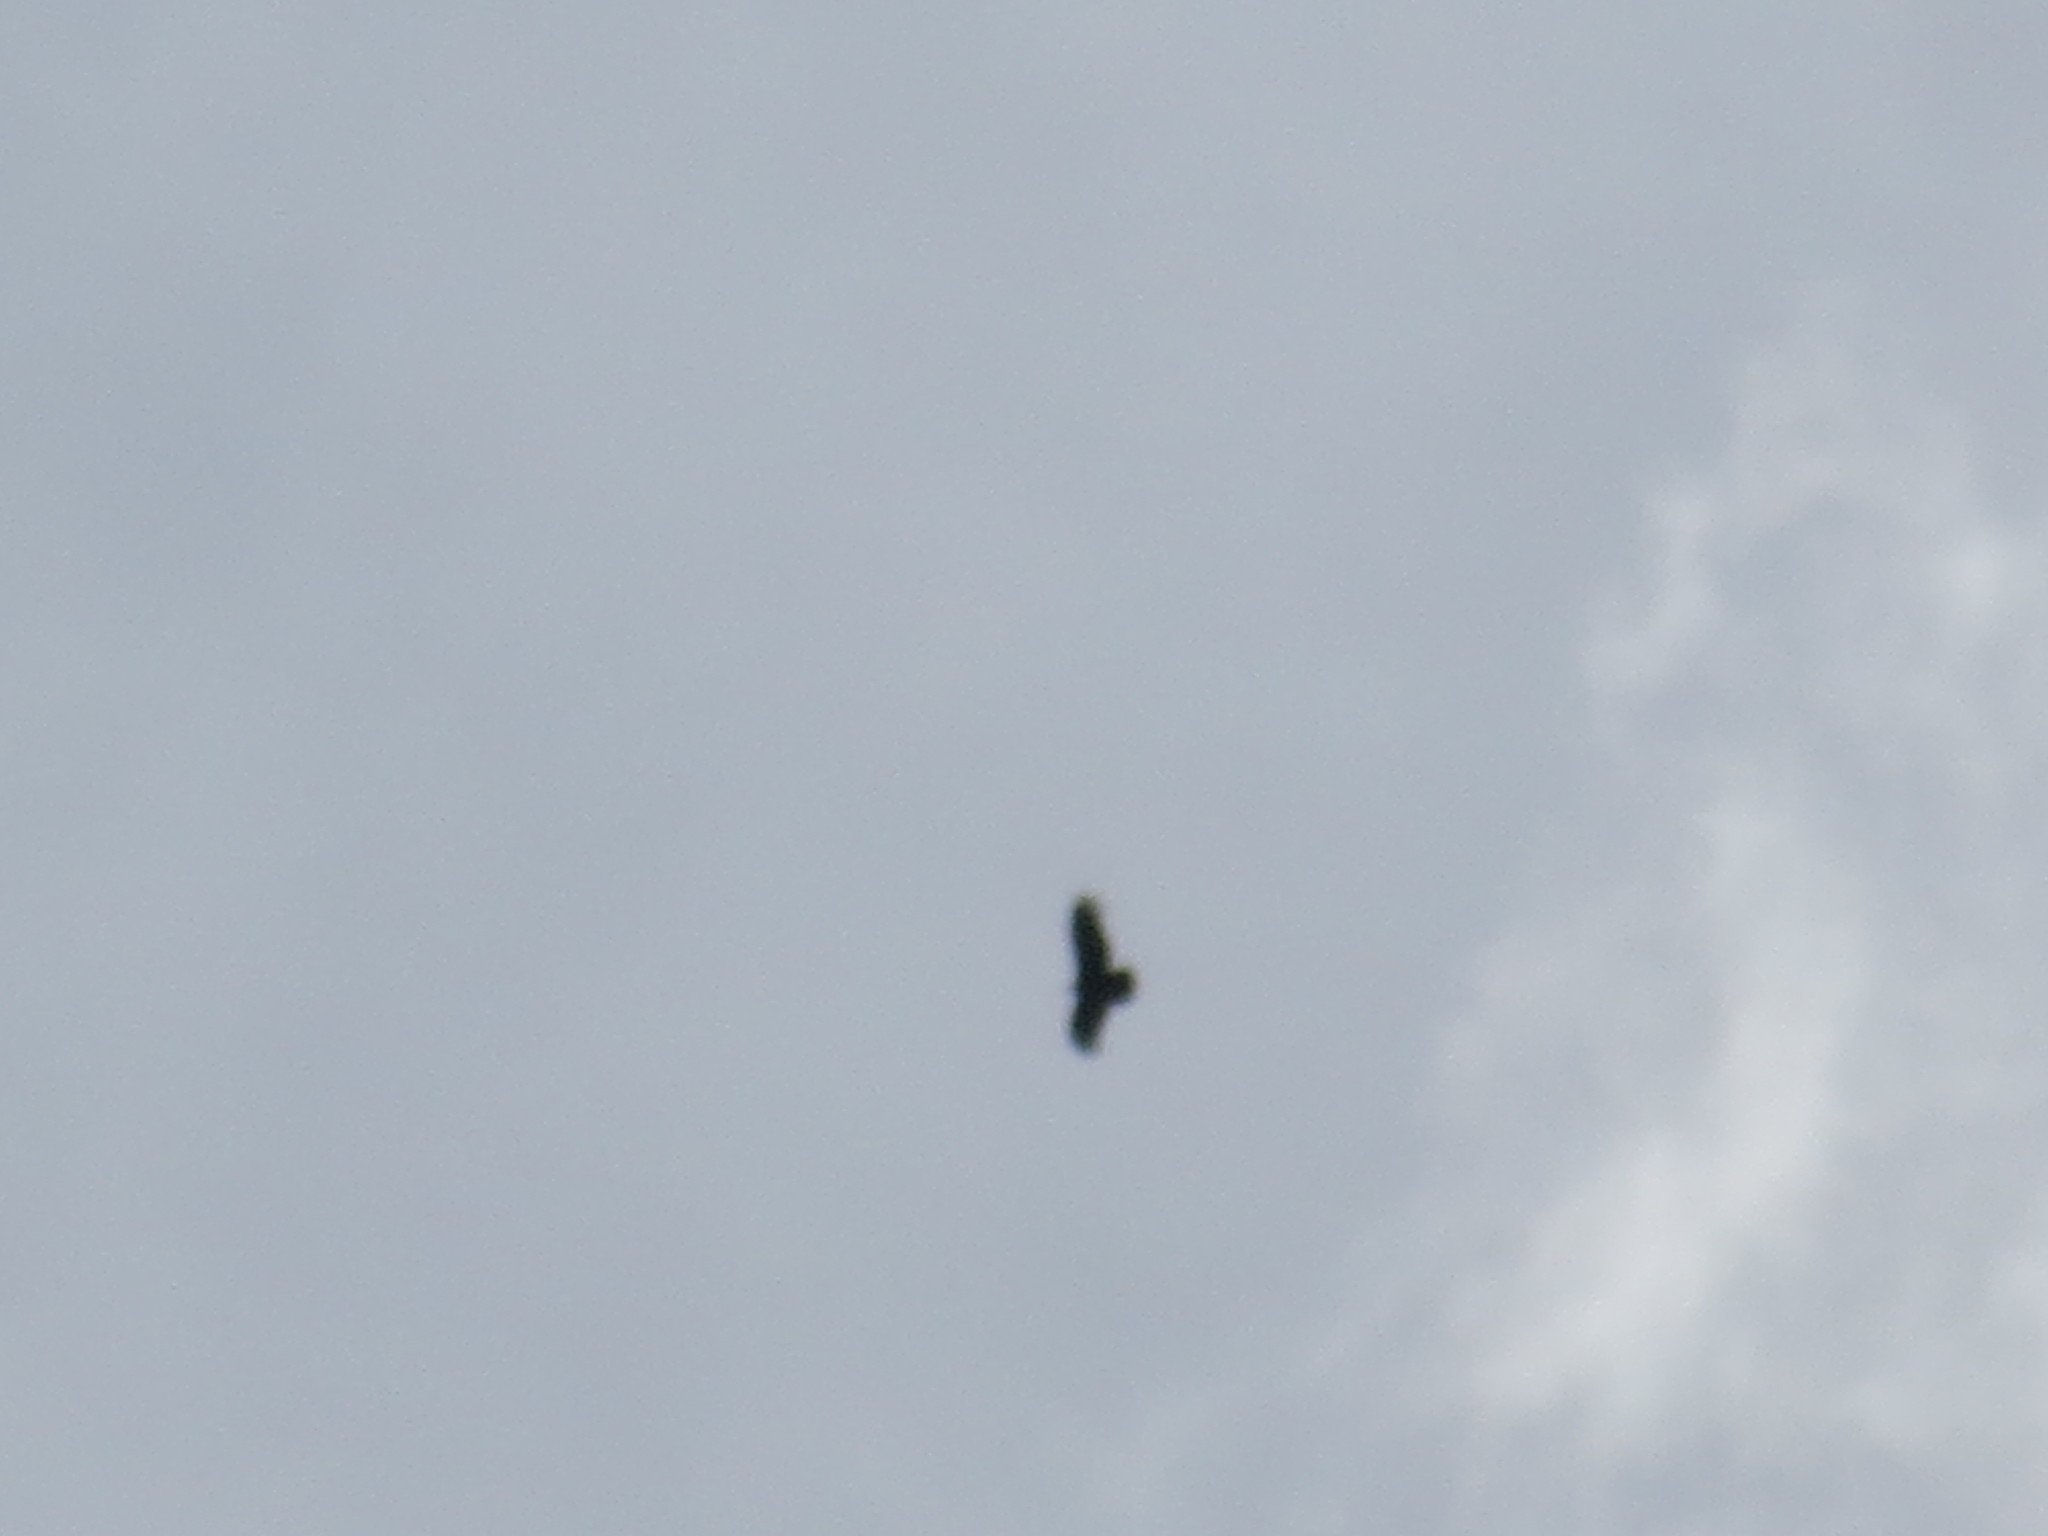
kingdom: Animalia
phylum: Chordata
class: Aves
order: Accipitriformes
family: Cathartidae
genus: Coragyps
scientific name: Coragyps atratus
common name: Black vulture
